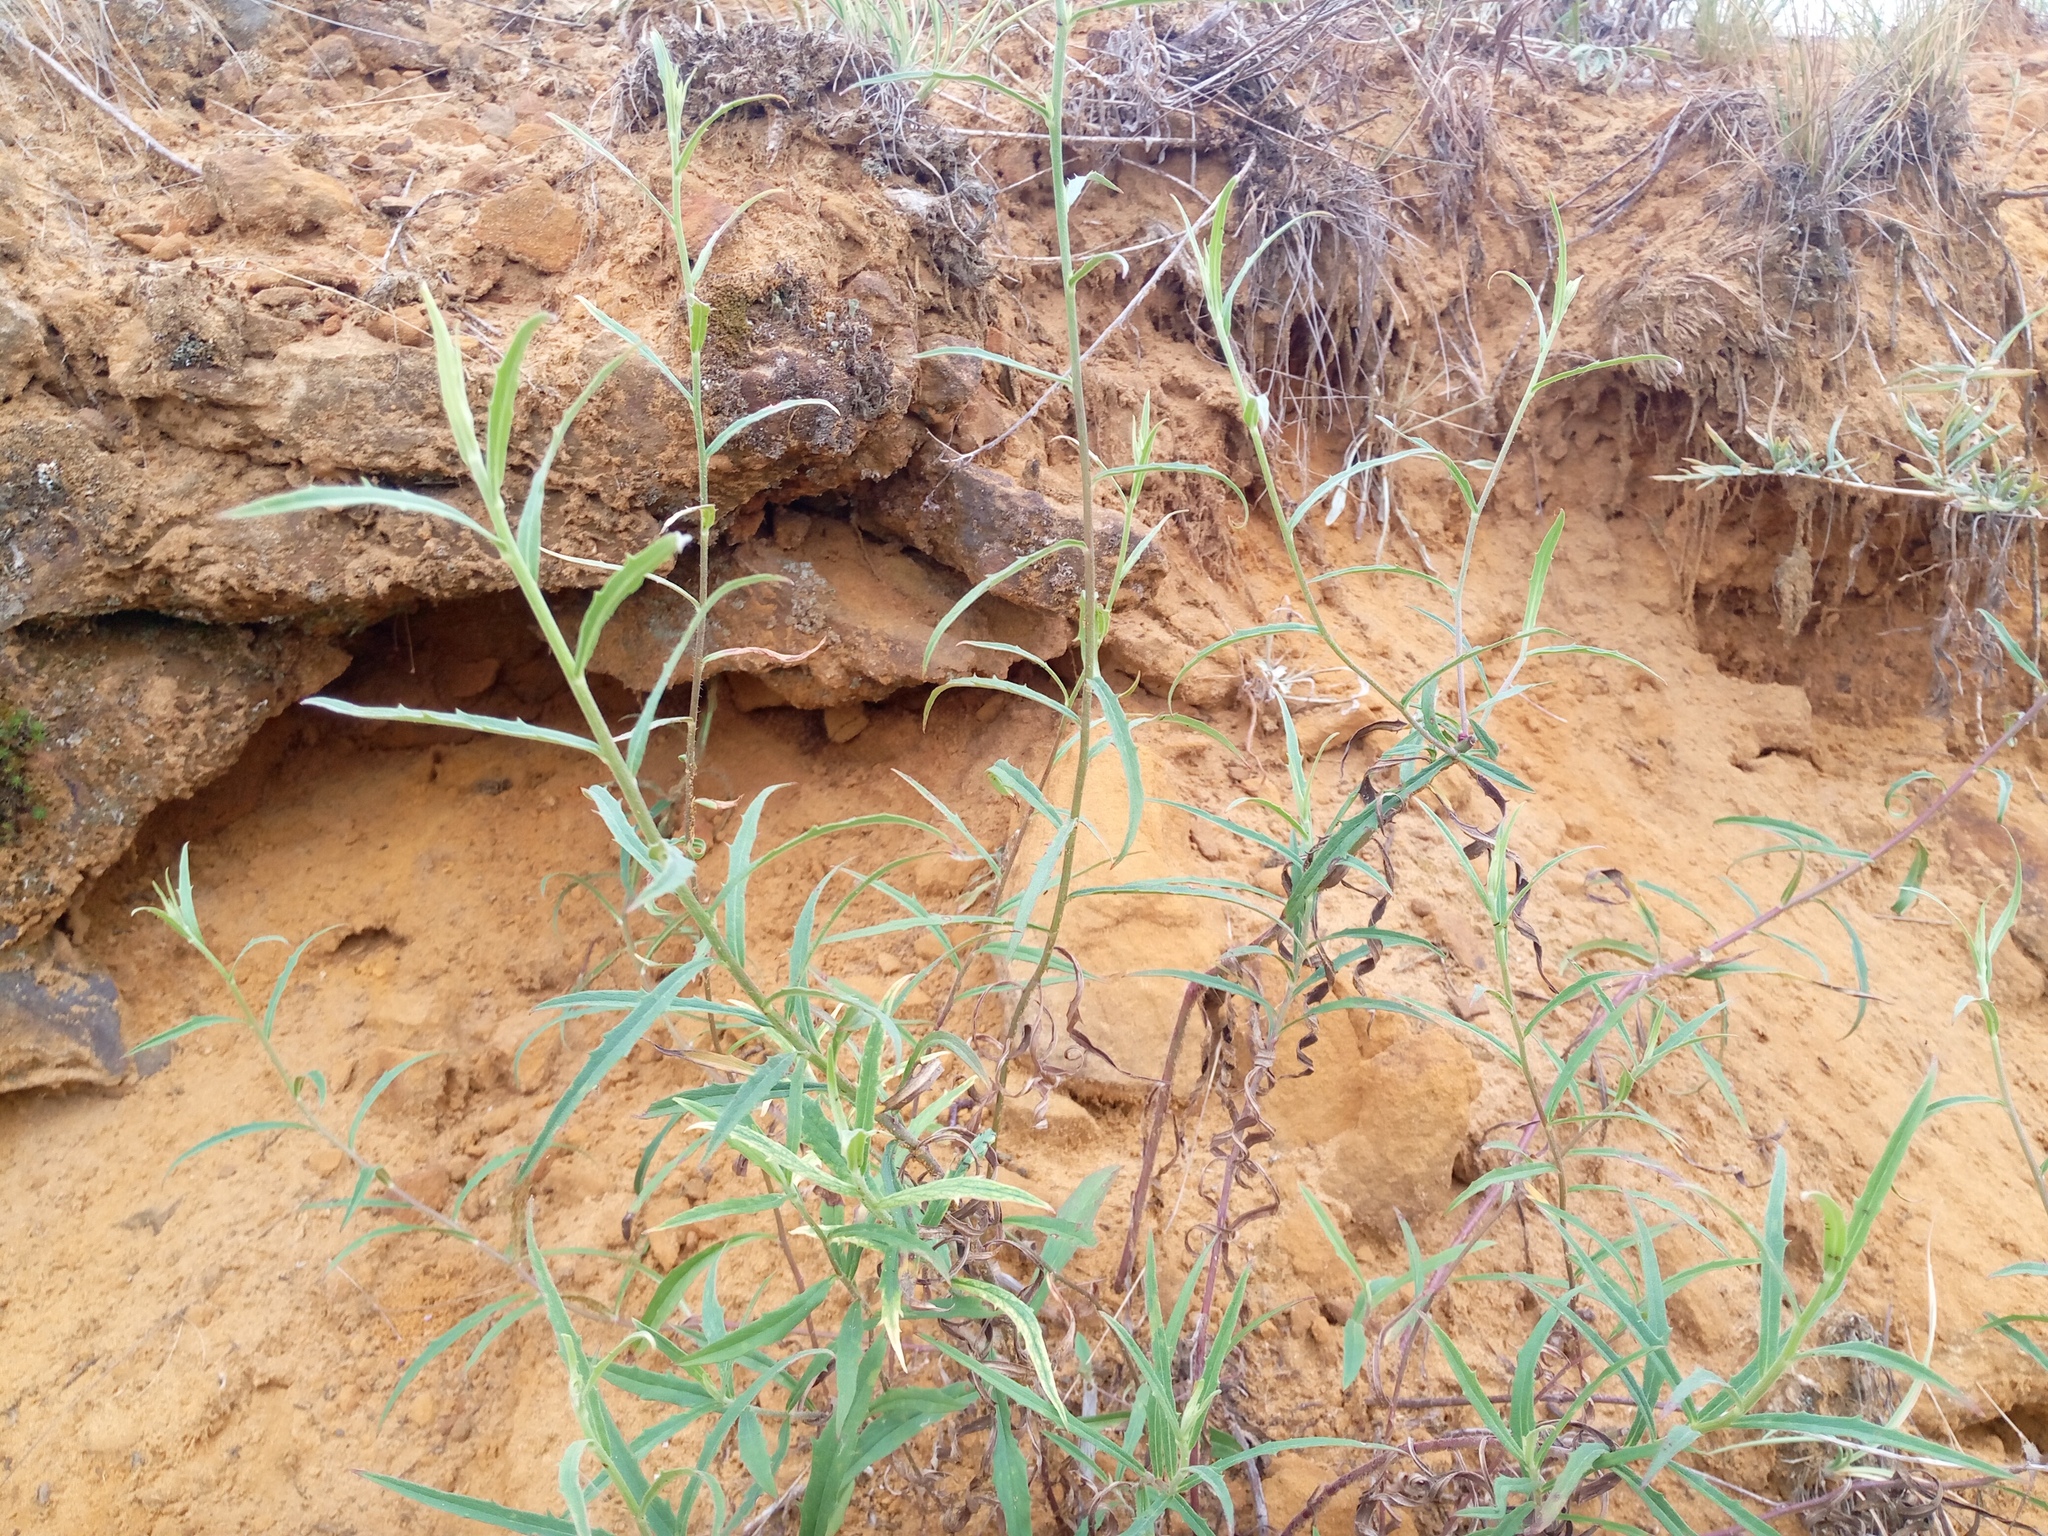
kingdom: Plantae
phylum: Tracheophyta
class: Magnoliopsida
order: Asterales
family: Asteraceae
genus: Hieracium
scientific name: Hieracium umbellatum
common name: Northern hawkweed
